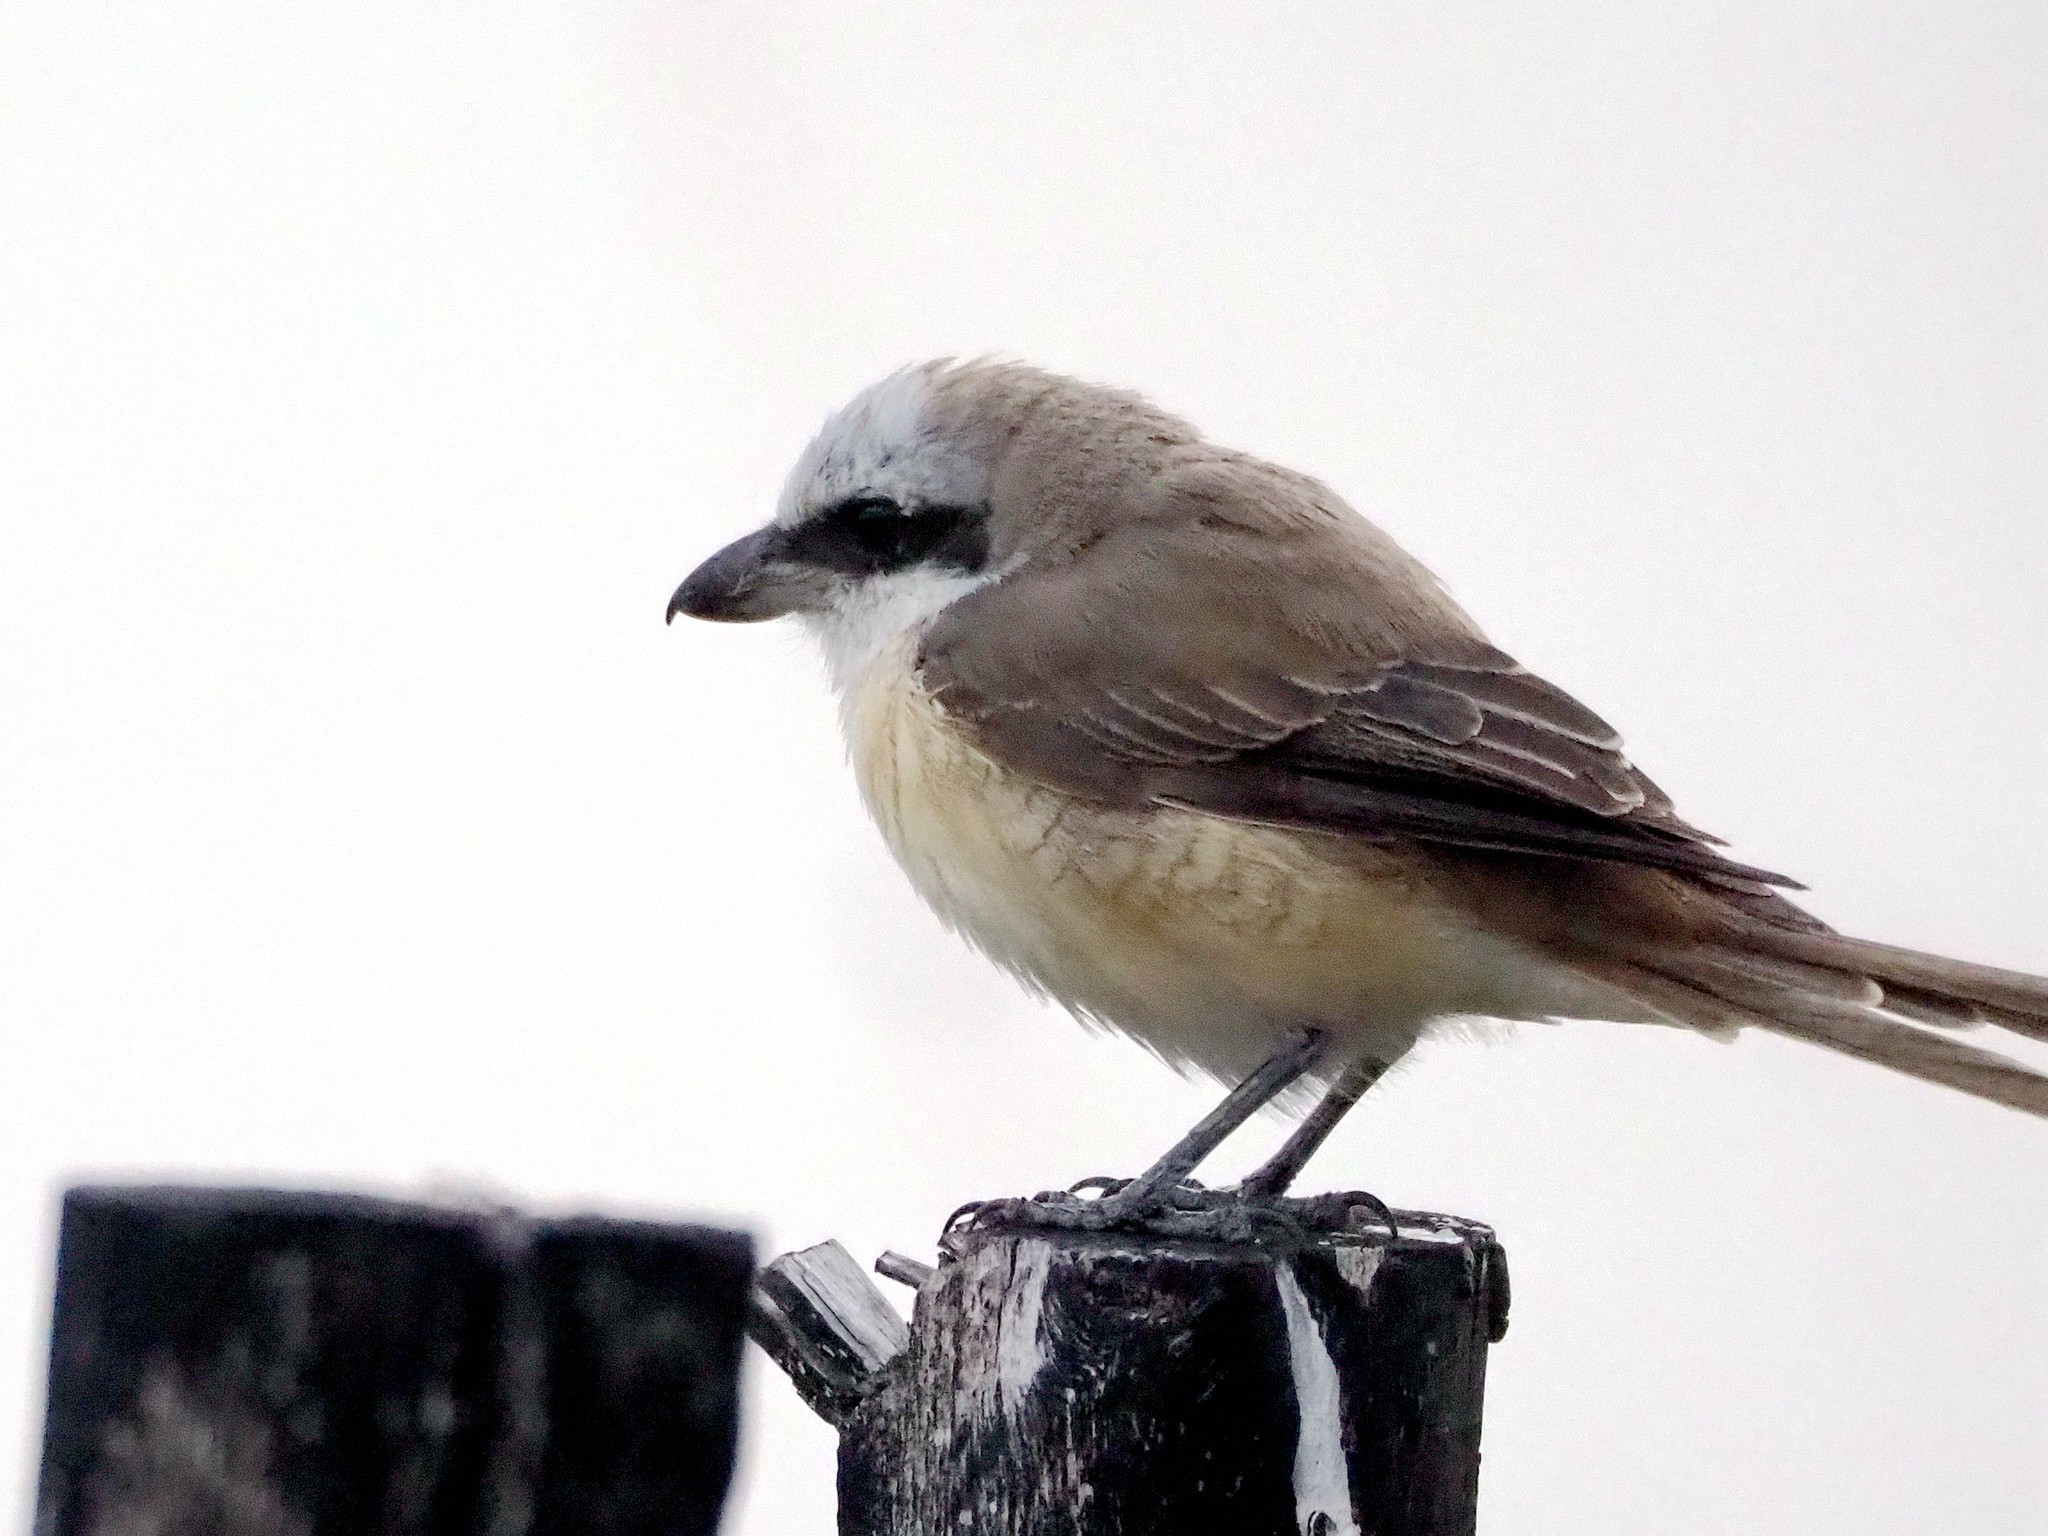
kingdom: Animalia
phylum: Chordata
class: Aves
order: Passeriformes
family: Laniidae
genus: Lanius
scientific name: Lanius cristatus
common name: Brown shrike
